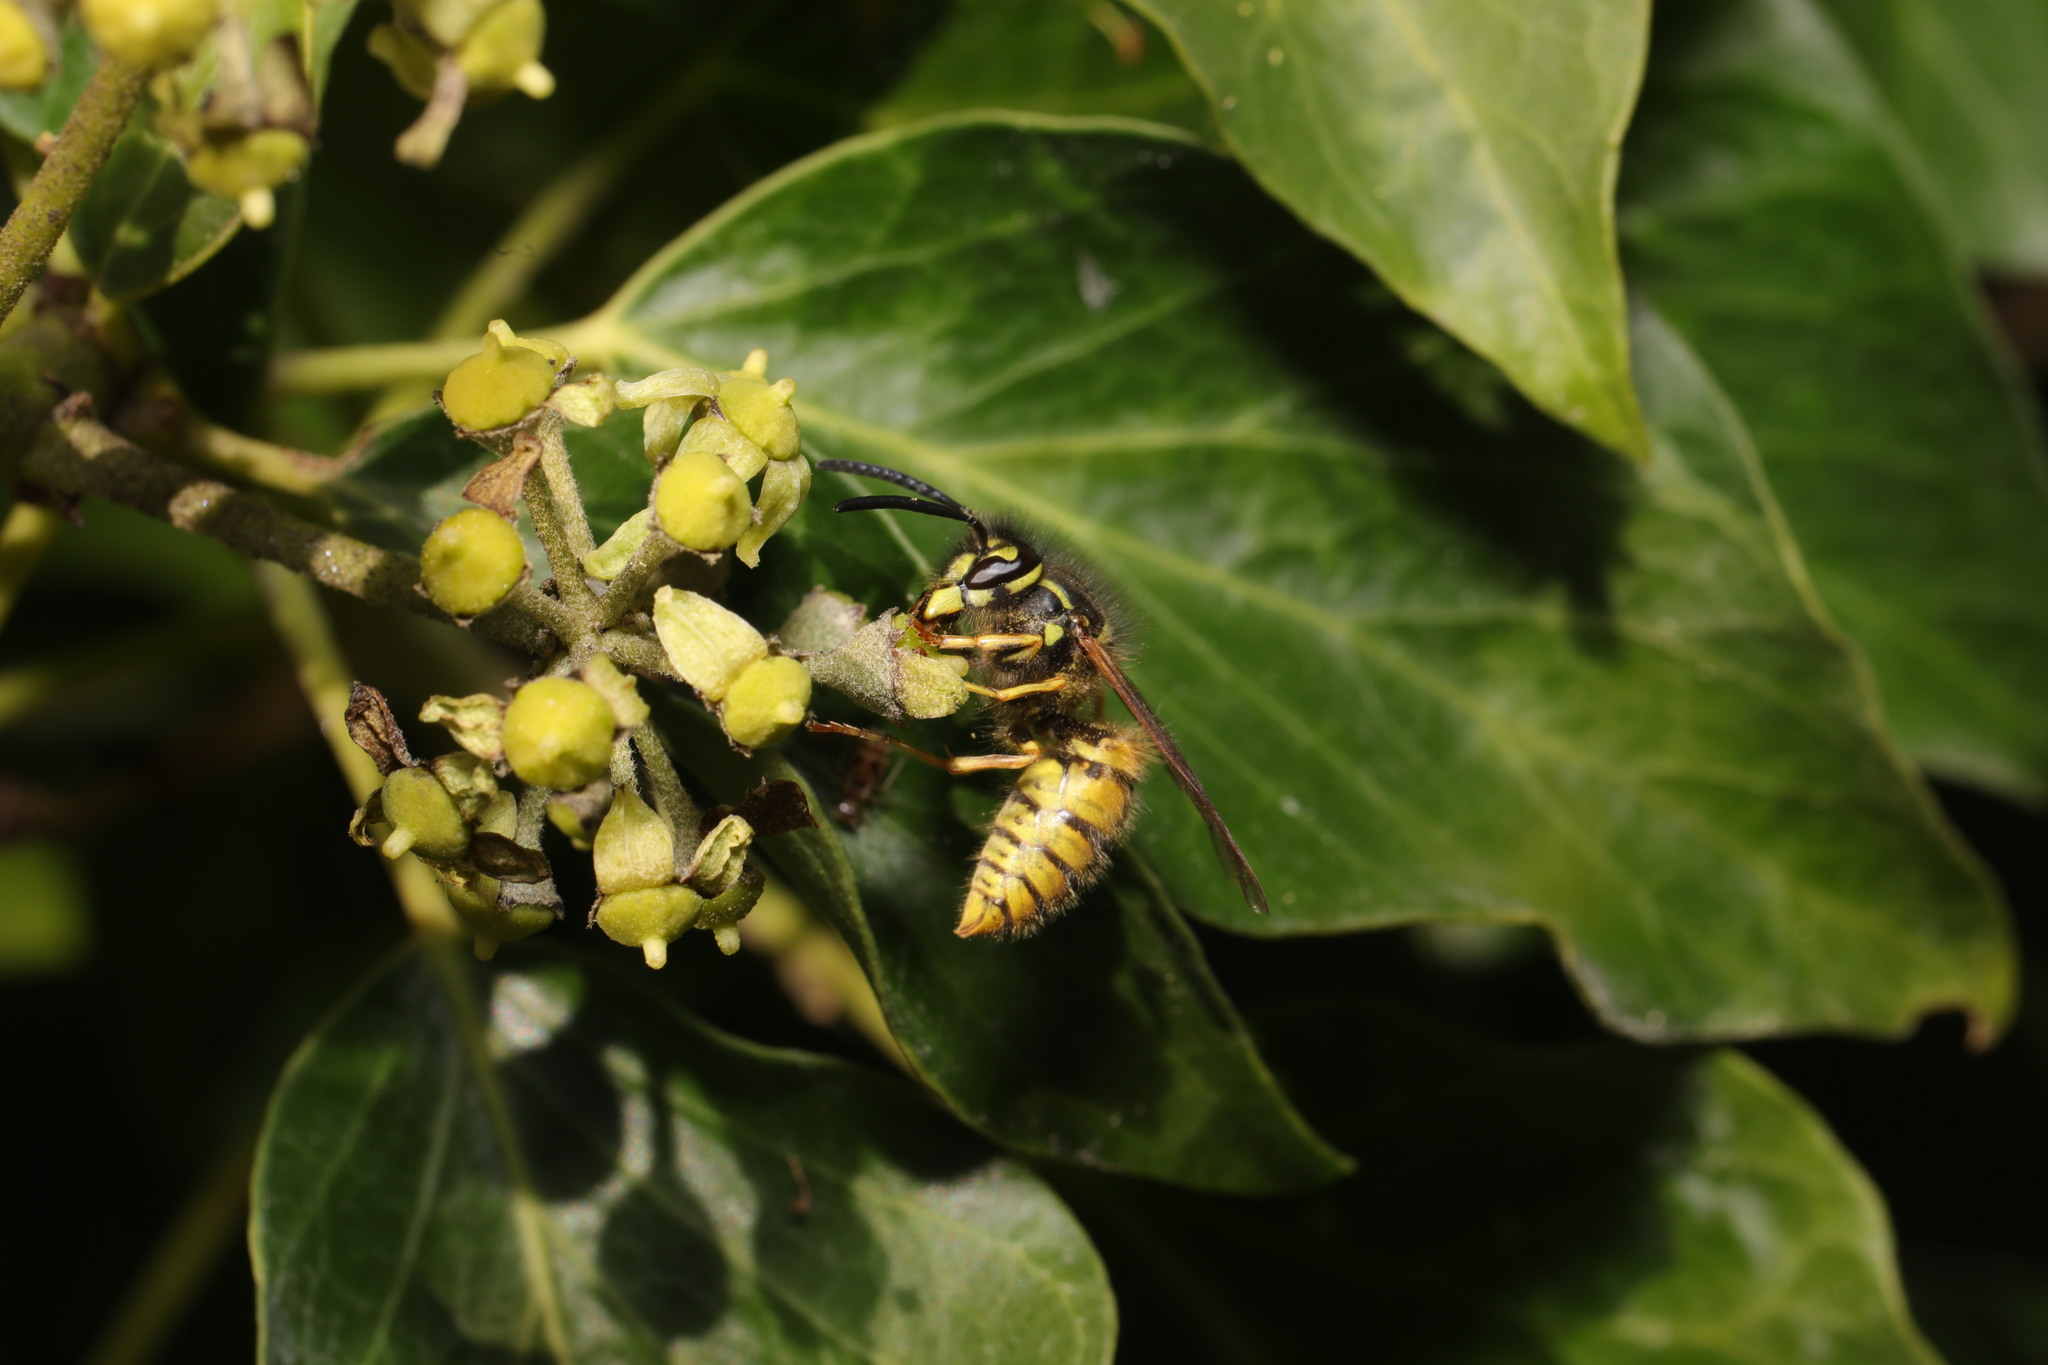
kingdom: Animalia
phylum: Arthropoda
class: Insecta
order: Hymenoptera
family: Vespidae
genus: Vespula
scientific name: Vespula vulgaris
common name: Common wasp
